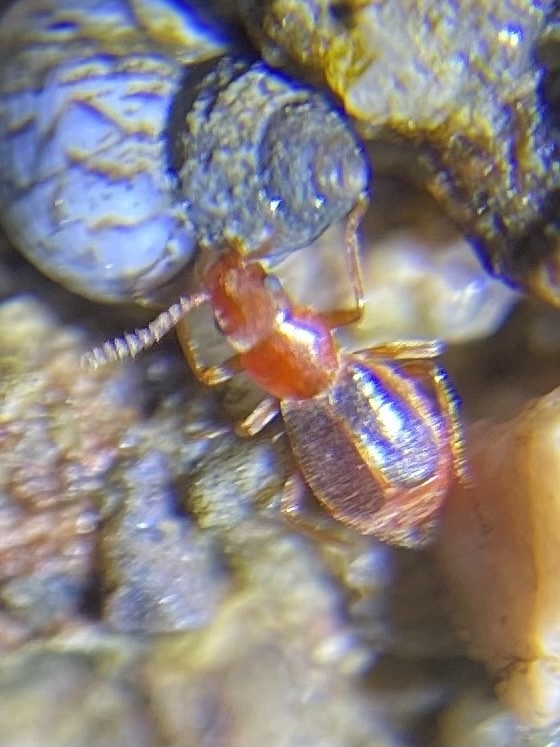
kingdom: Animalia
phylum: Arthropoda
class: Insecta
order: Coleoptera
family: Melyridae
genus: Endeodes
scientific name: Endeodes
